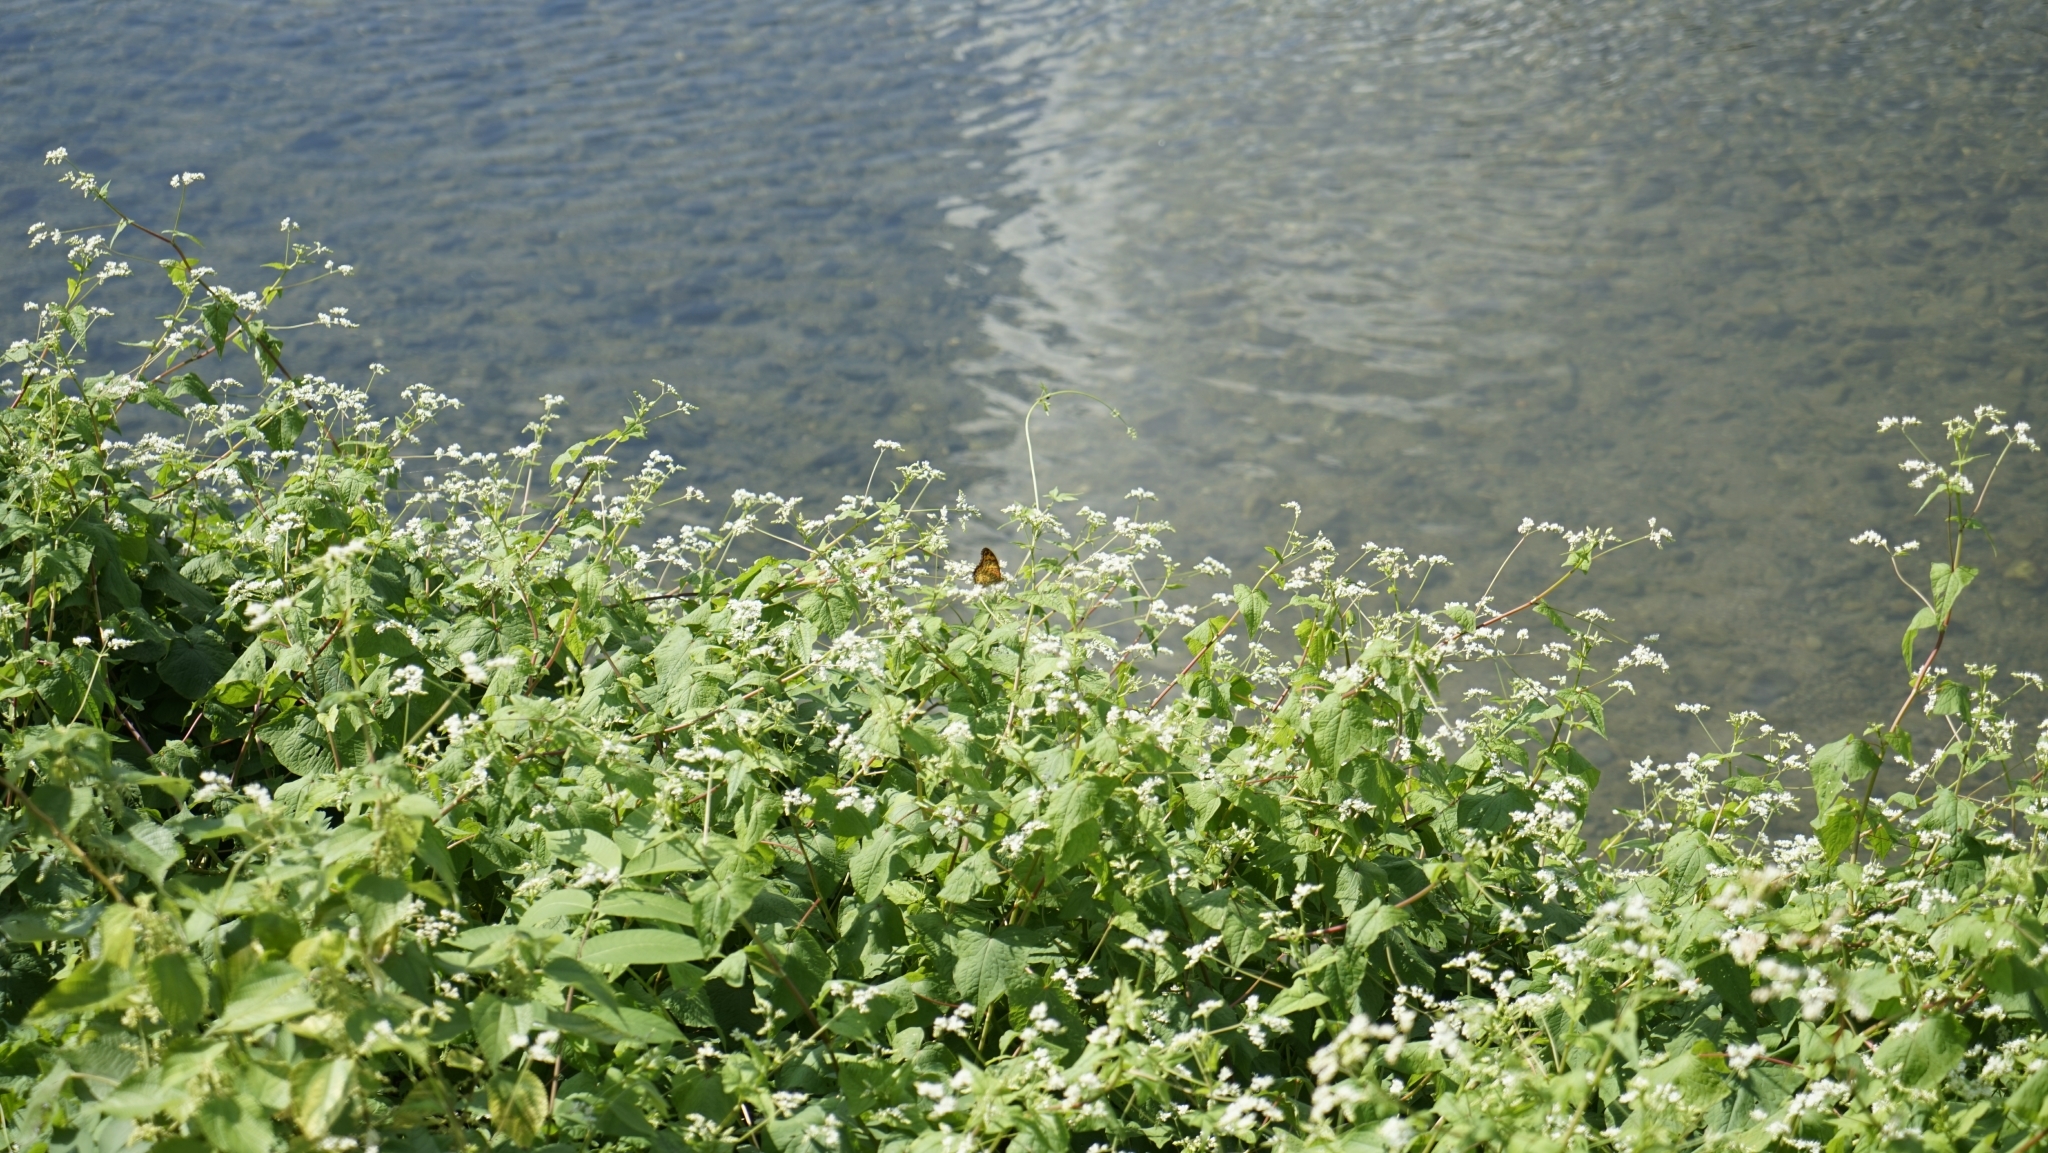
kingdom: Animalia
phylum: Arthropoda
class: Insecta
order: Lepidoptera
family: Nymphalidae
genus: Argynnis
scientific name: Argynnis hyperbius
